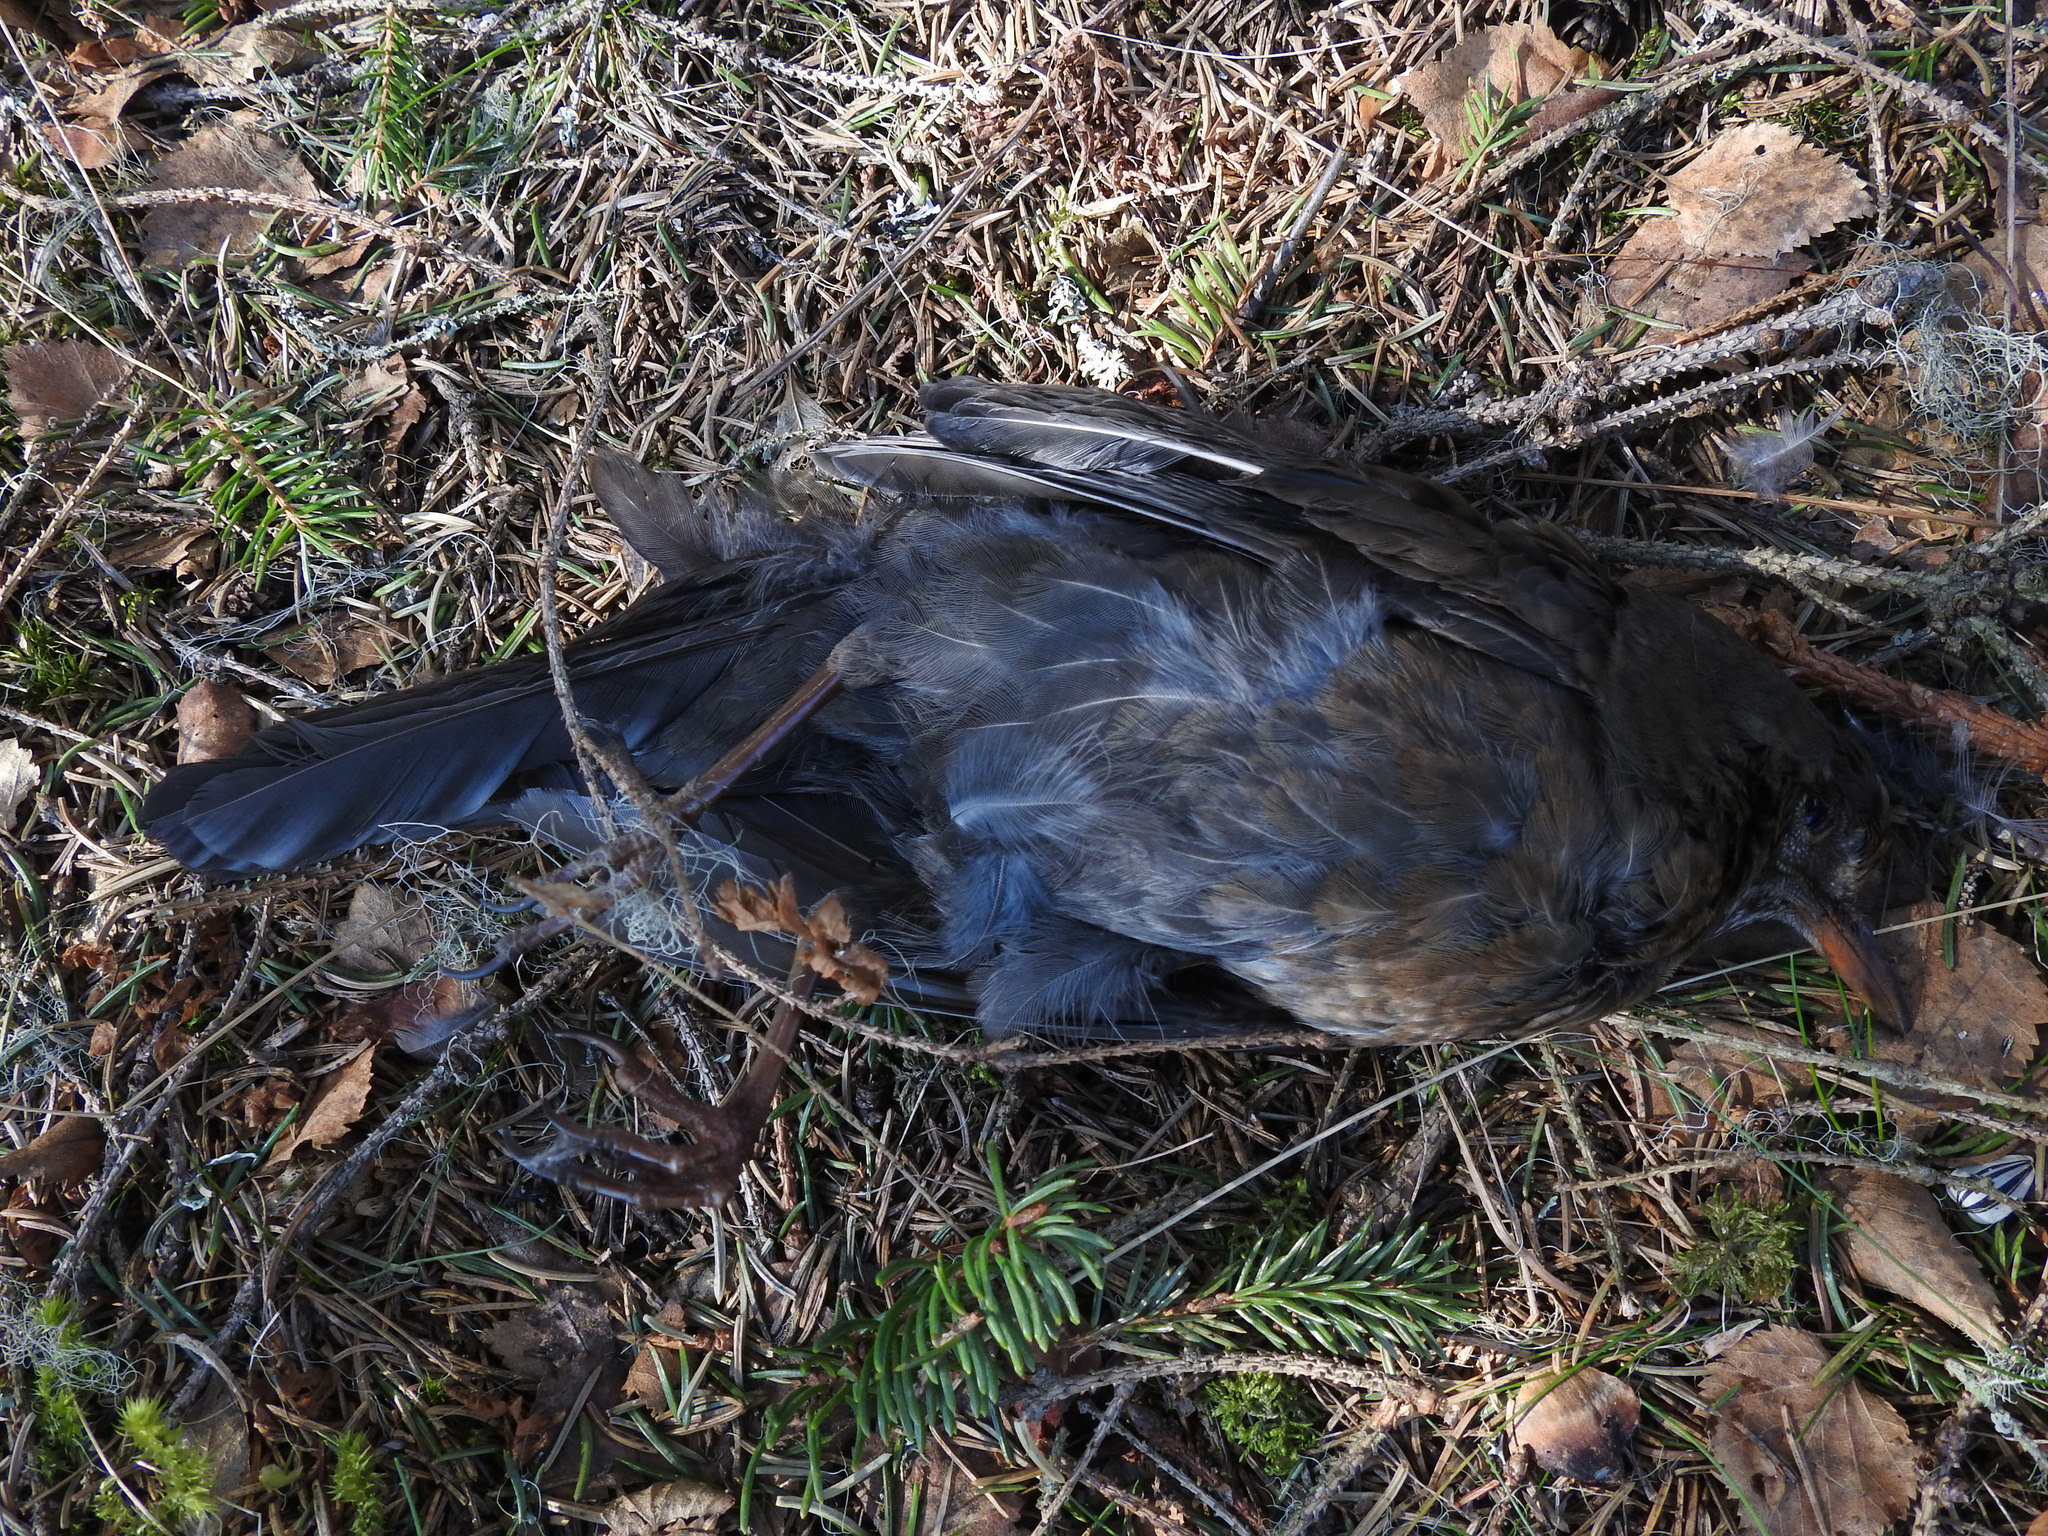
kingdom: Animalia
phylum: Chordata
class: Aves
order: Passeriformes
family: Turdidae
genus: Turdus
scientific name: Turdus merula
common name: Common blackbird
